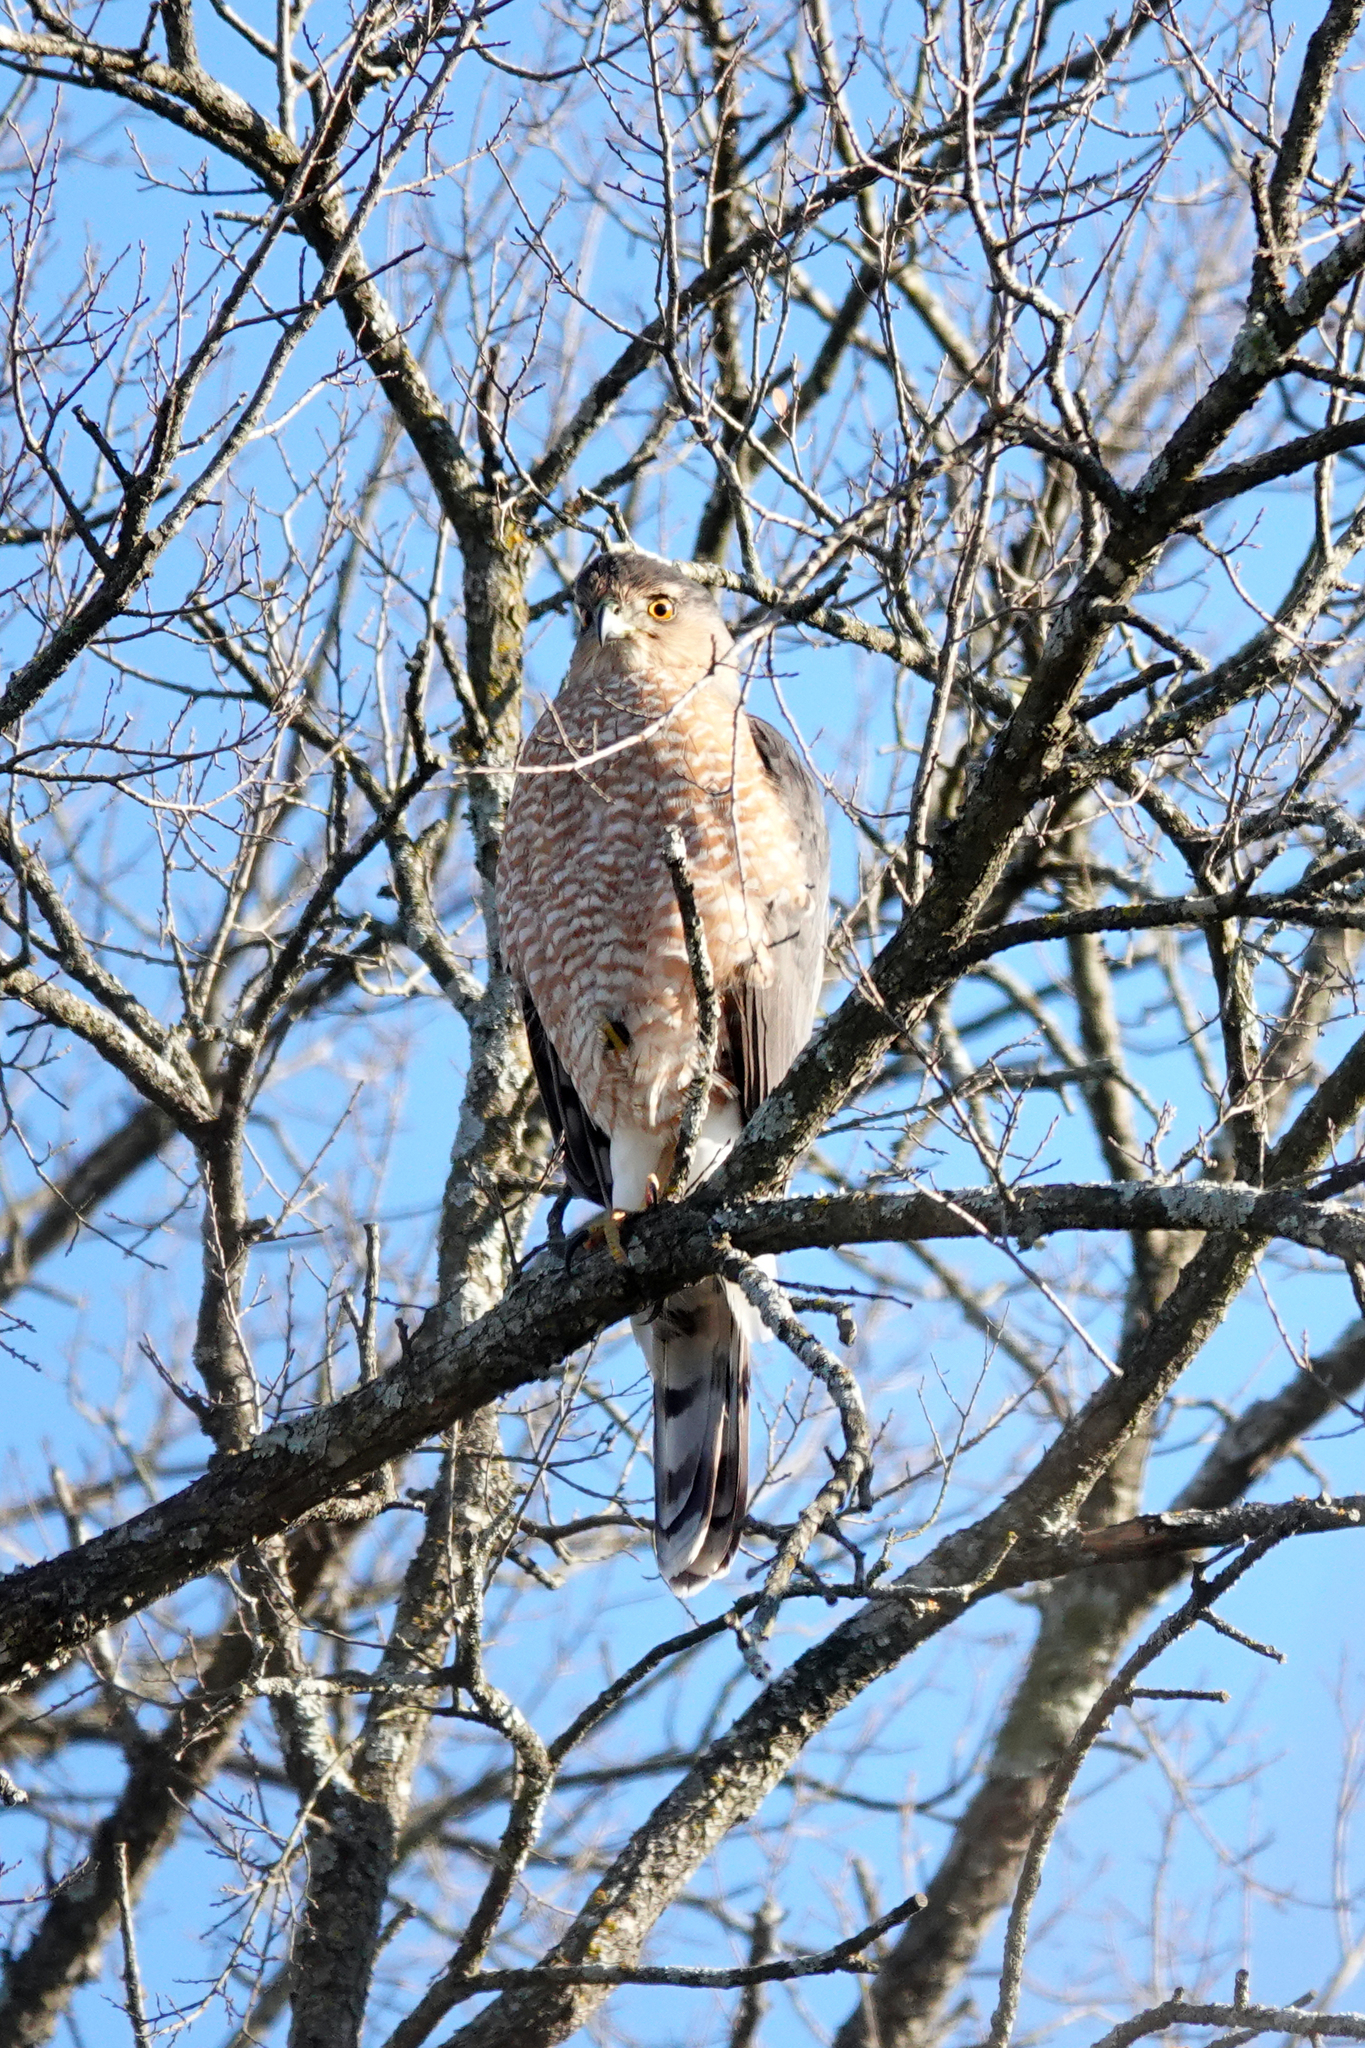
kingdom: Animalia
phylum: Chordata
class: Aves
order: Accipitriformes
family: Accipitridae
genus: Accipiter
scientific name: Accipiter cooperii
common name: Cooper's hawk
